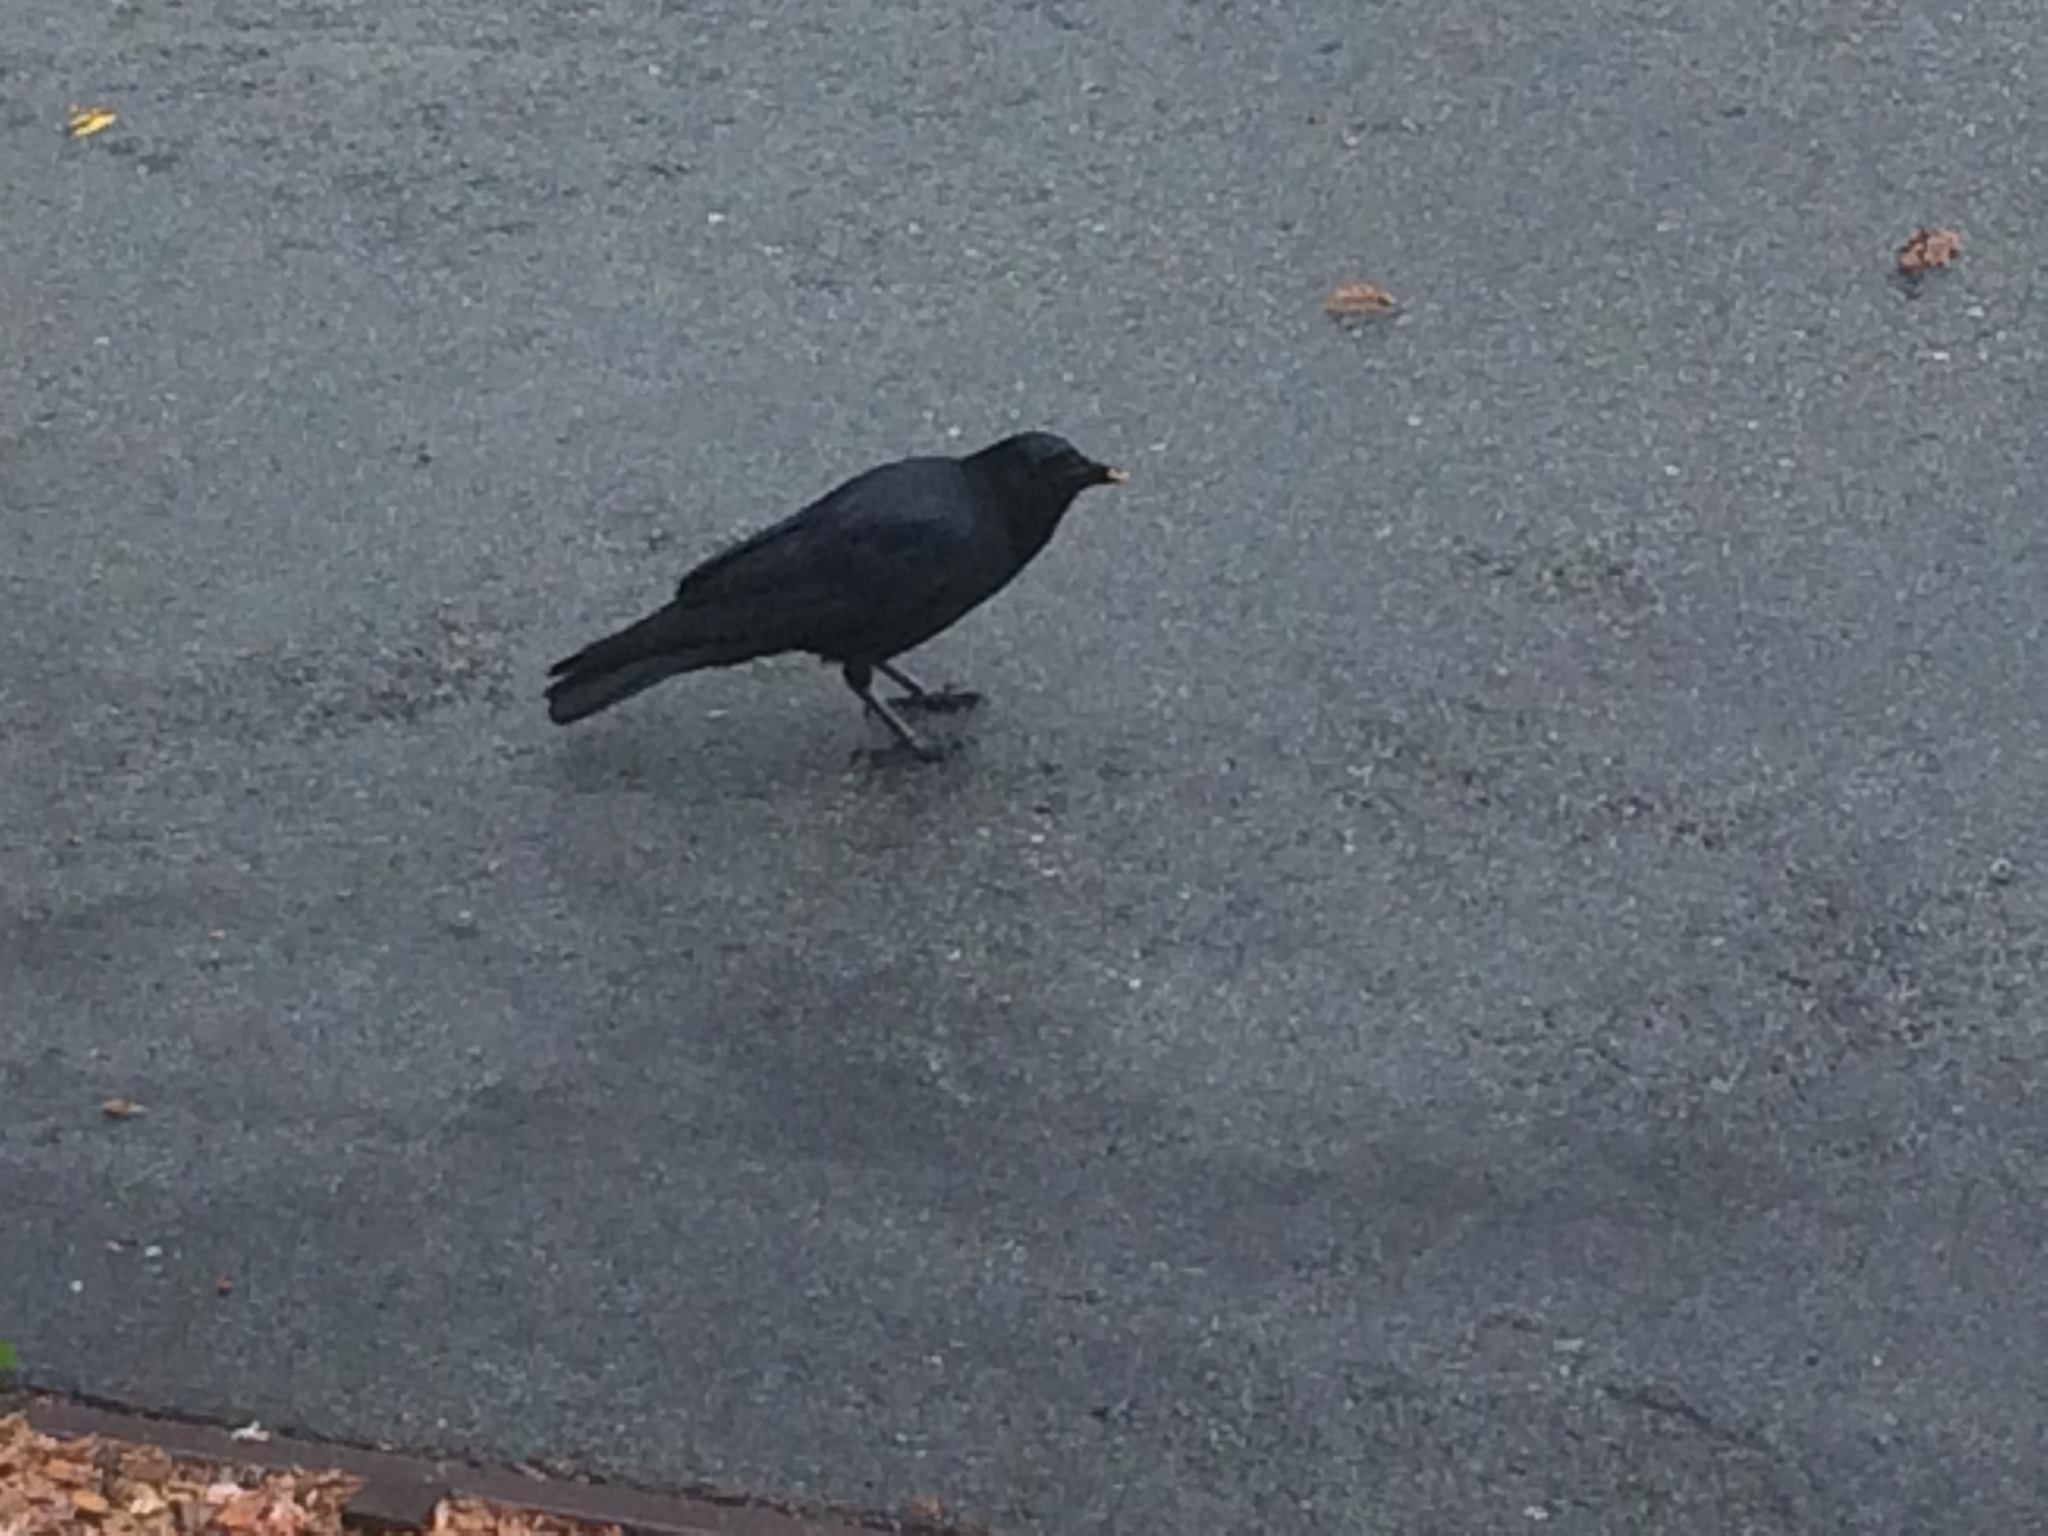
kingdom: Animalia
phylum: Chordata
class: Aves
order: Passeriformes
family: Corvidae
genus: Corvus
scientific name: Corvus brachyrhynchos
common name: American crow
